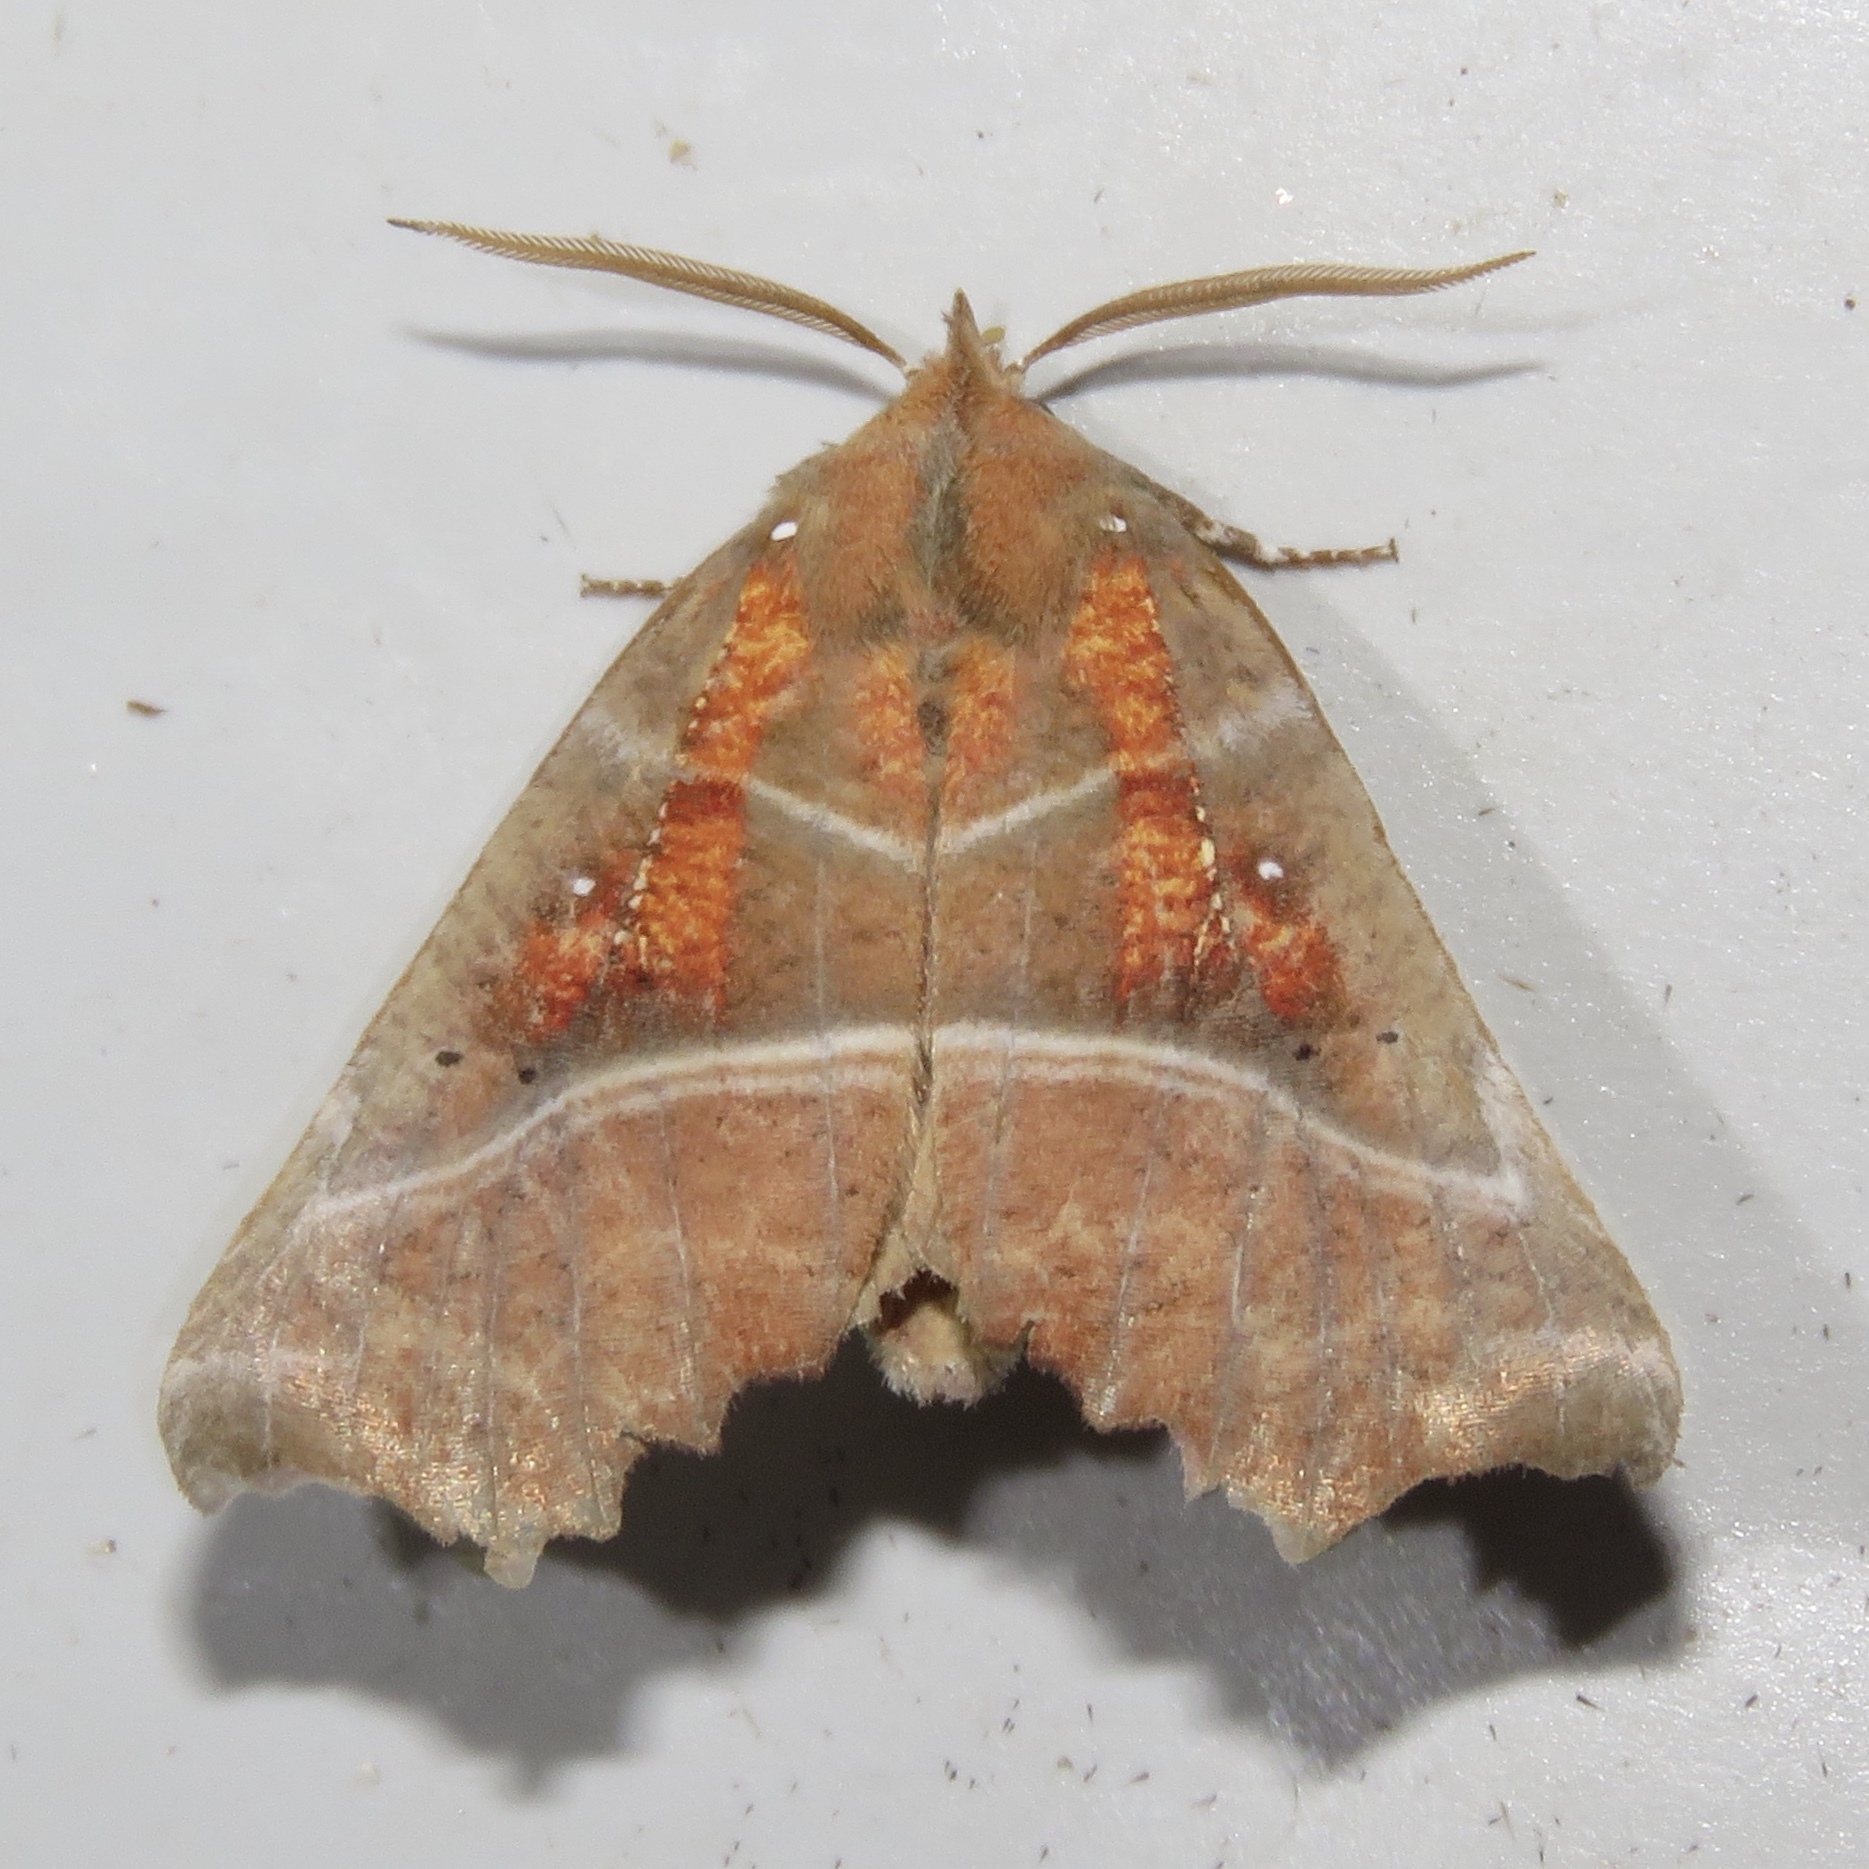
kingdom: Animalia
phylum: Arthropoda
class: Insecta
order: Lepidoptera
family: Erebidae
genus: Scoliopteryx
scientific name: Scoliopteryx libatrix
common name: Herald
